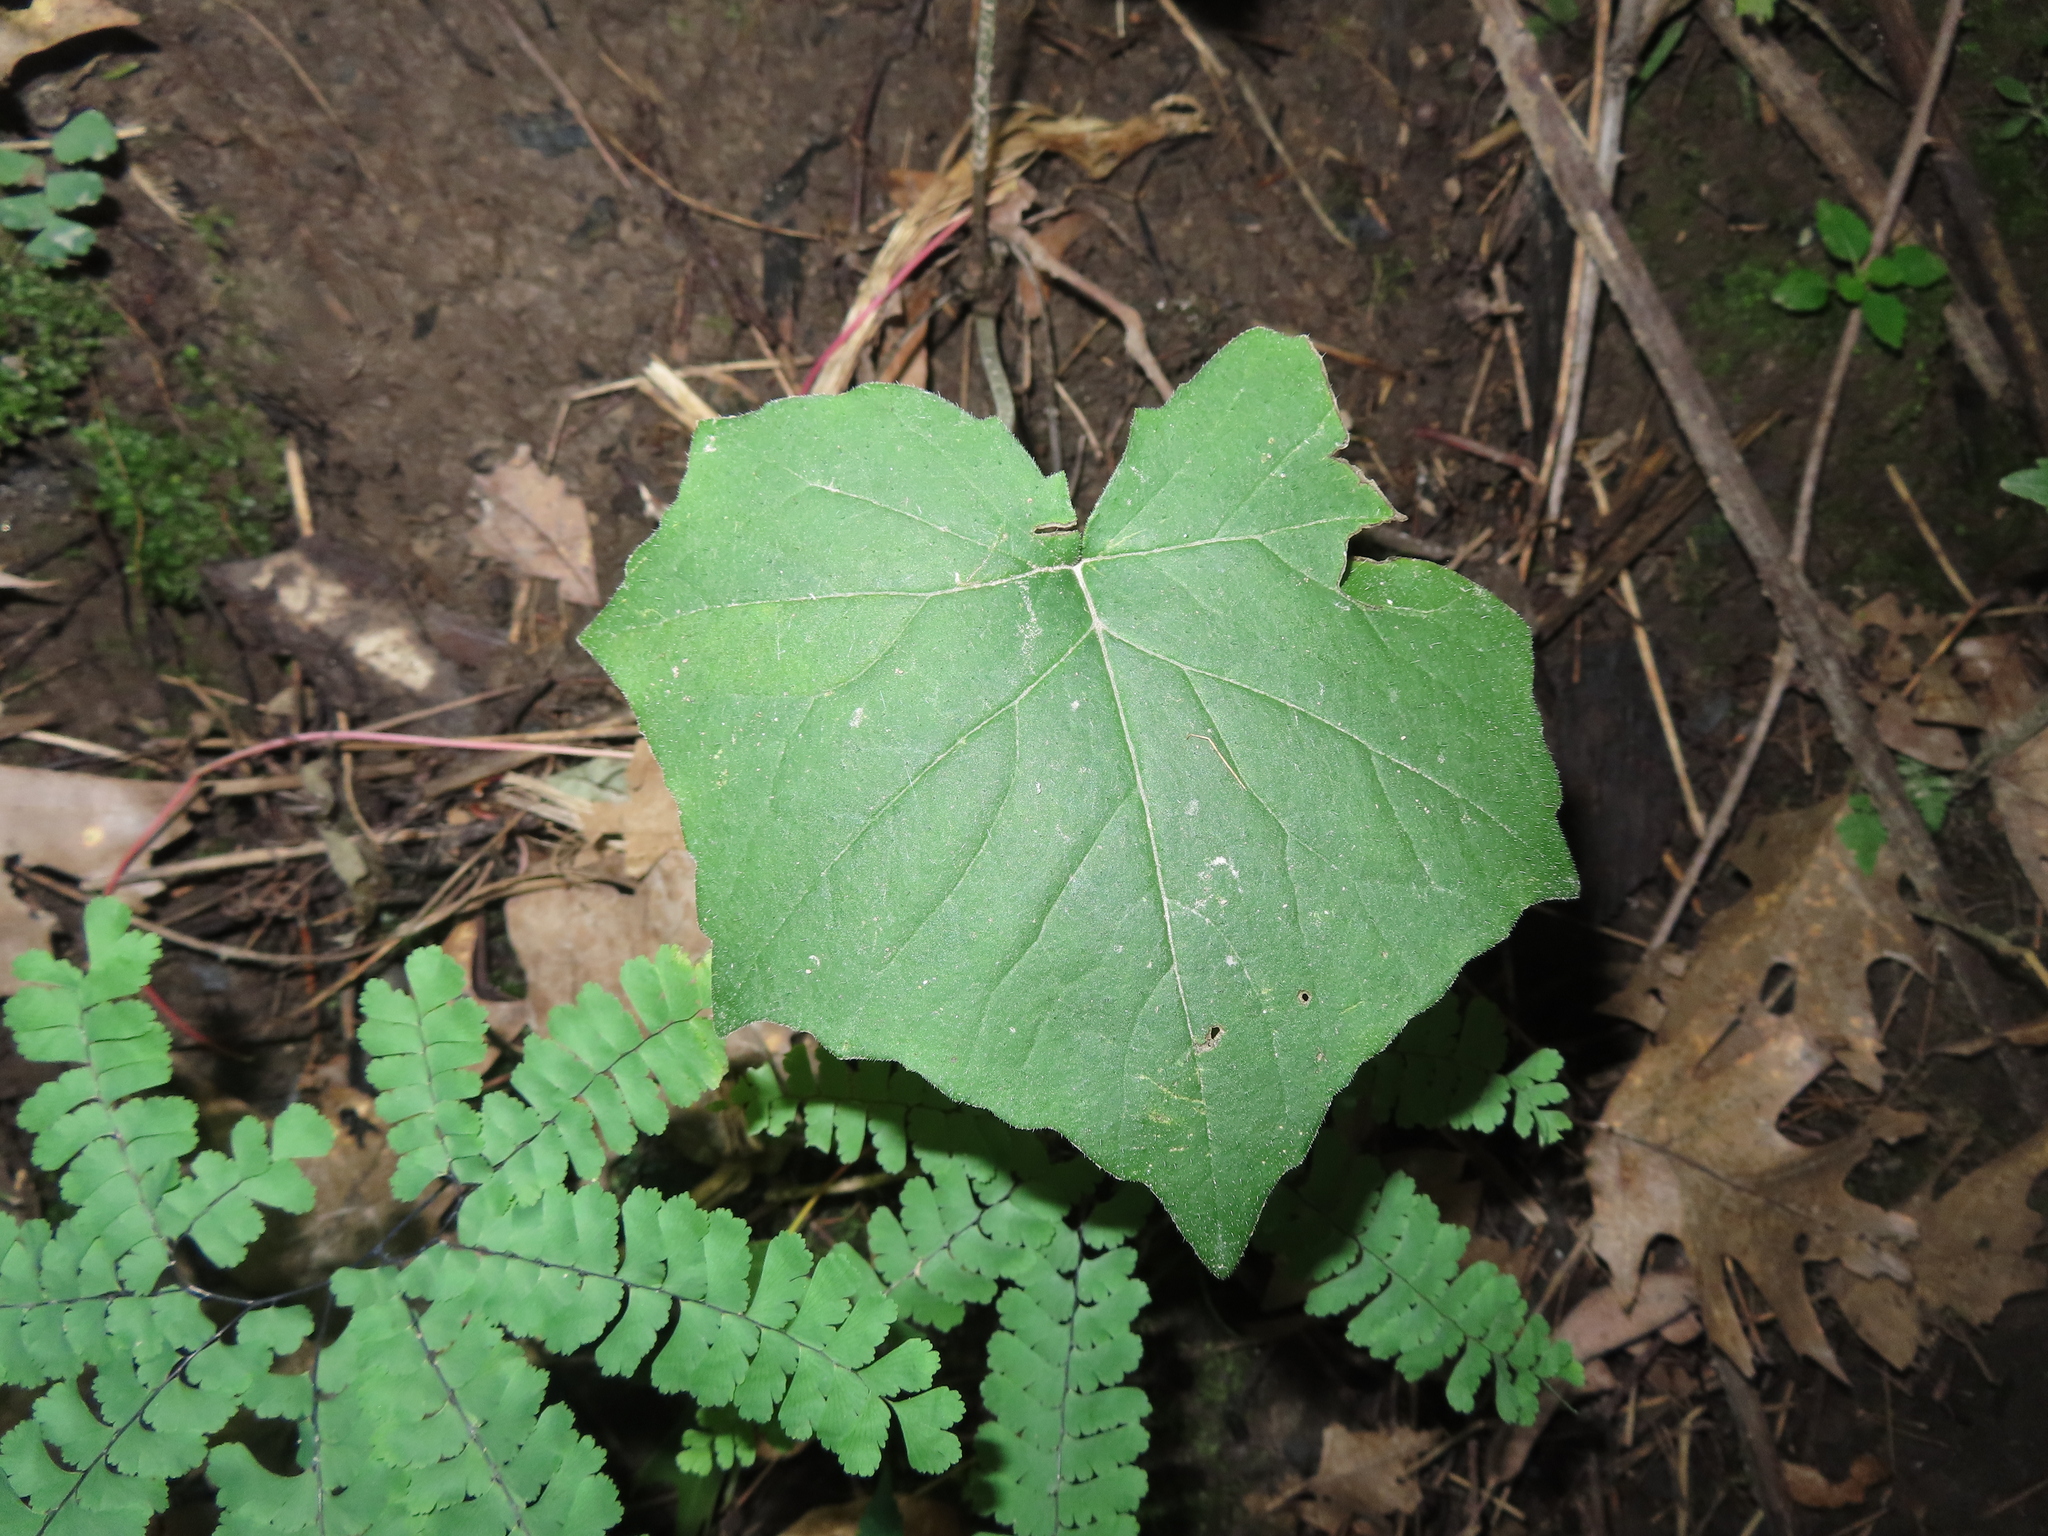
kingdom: Plantae
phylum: Tracheophyta
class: Magnoliopsida
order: Cucurbitales
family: Cucurbitaceae
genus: Sicyos
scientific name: Sicyos angulatus
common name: Angled burr cucumber
